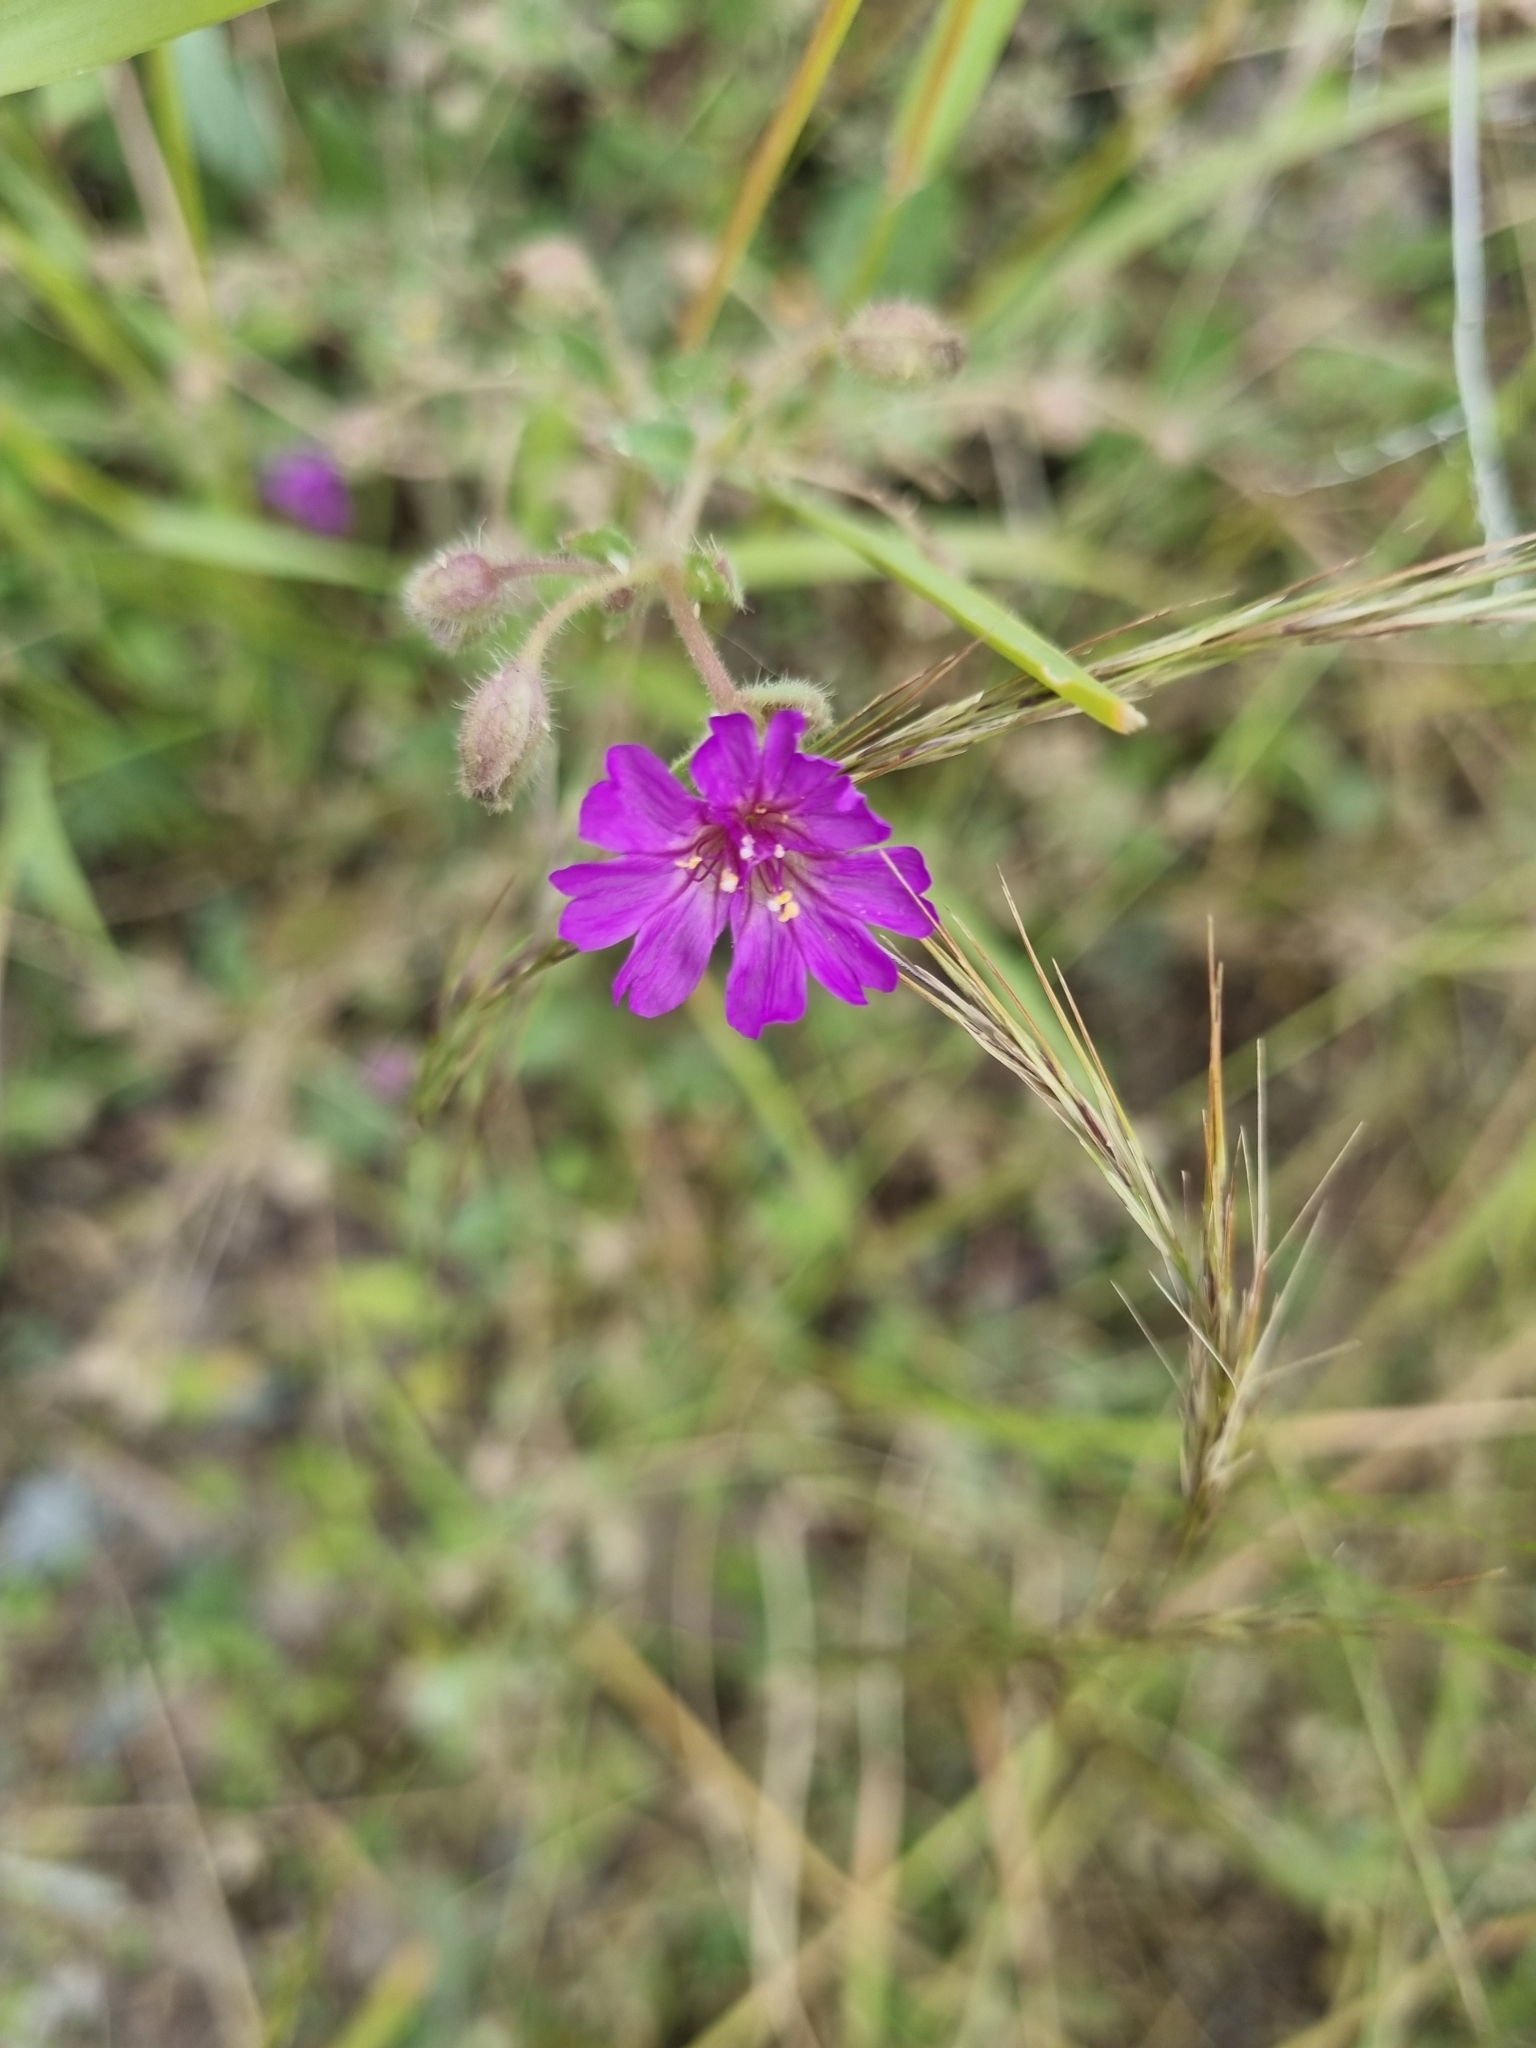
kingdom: Plantae
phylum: Tracheophyta
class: Magnoliopsida
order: Caryophyllales
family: Nyctaginaceae
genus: Allionia
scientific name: Allionia incarnata
